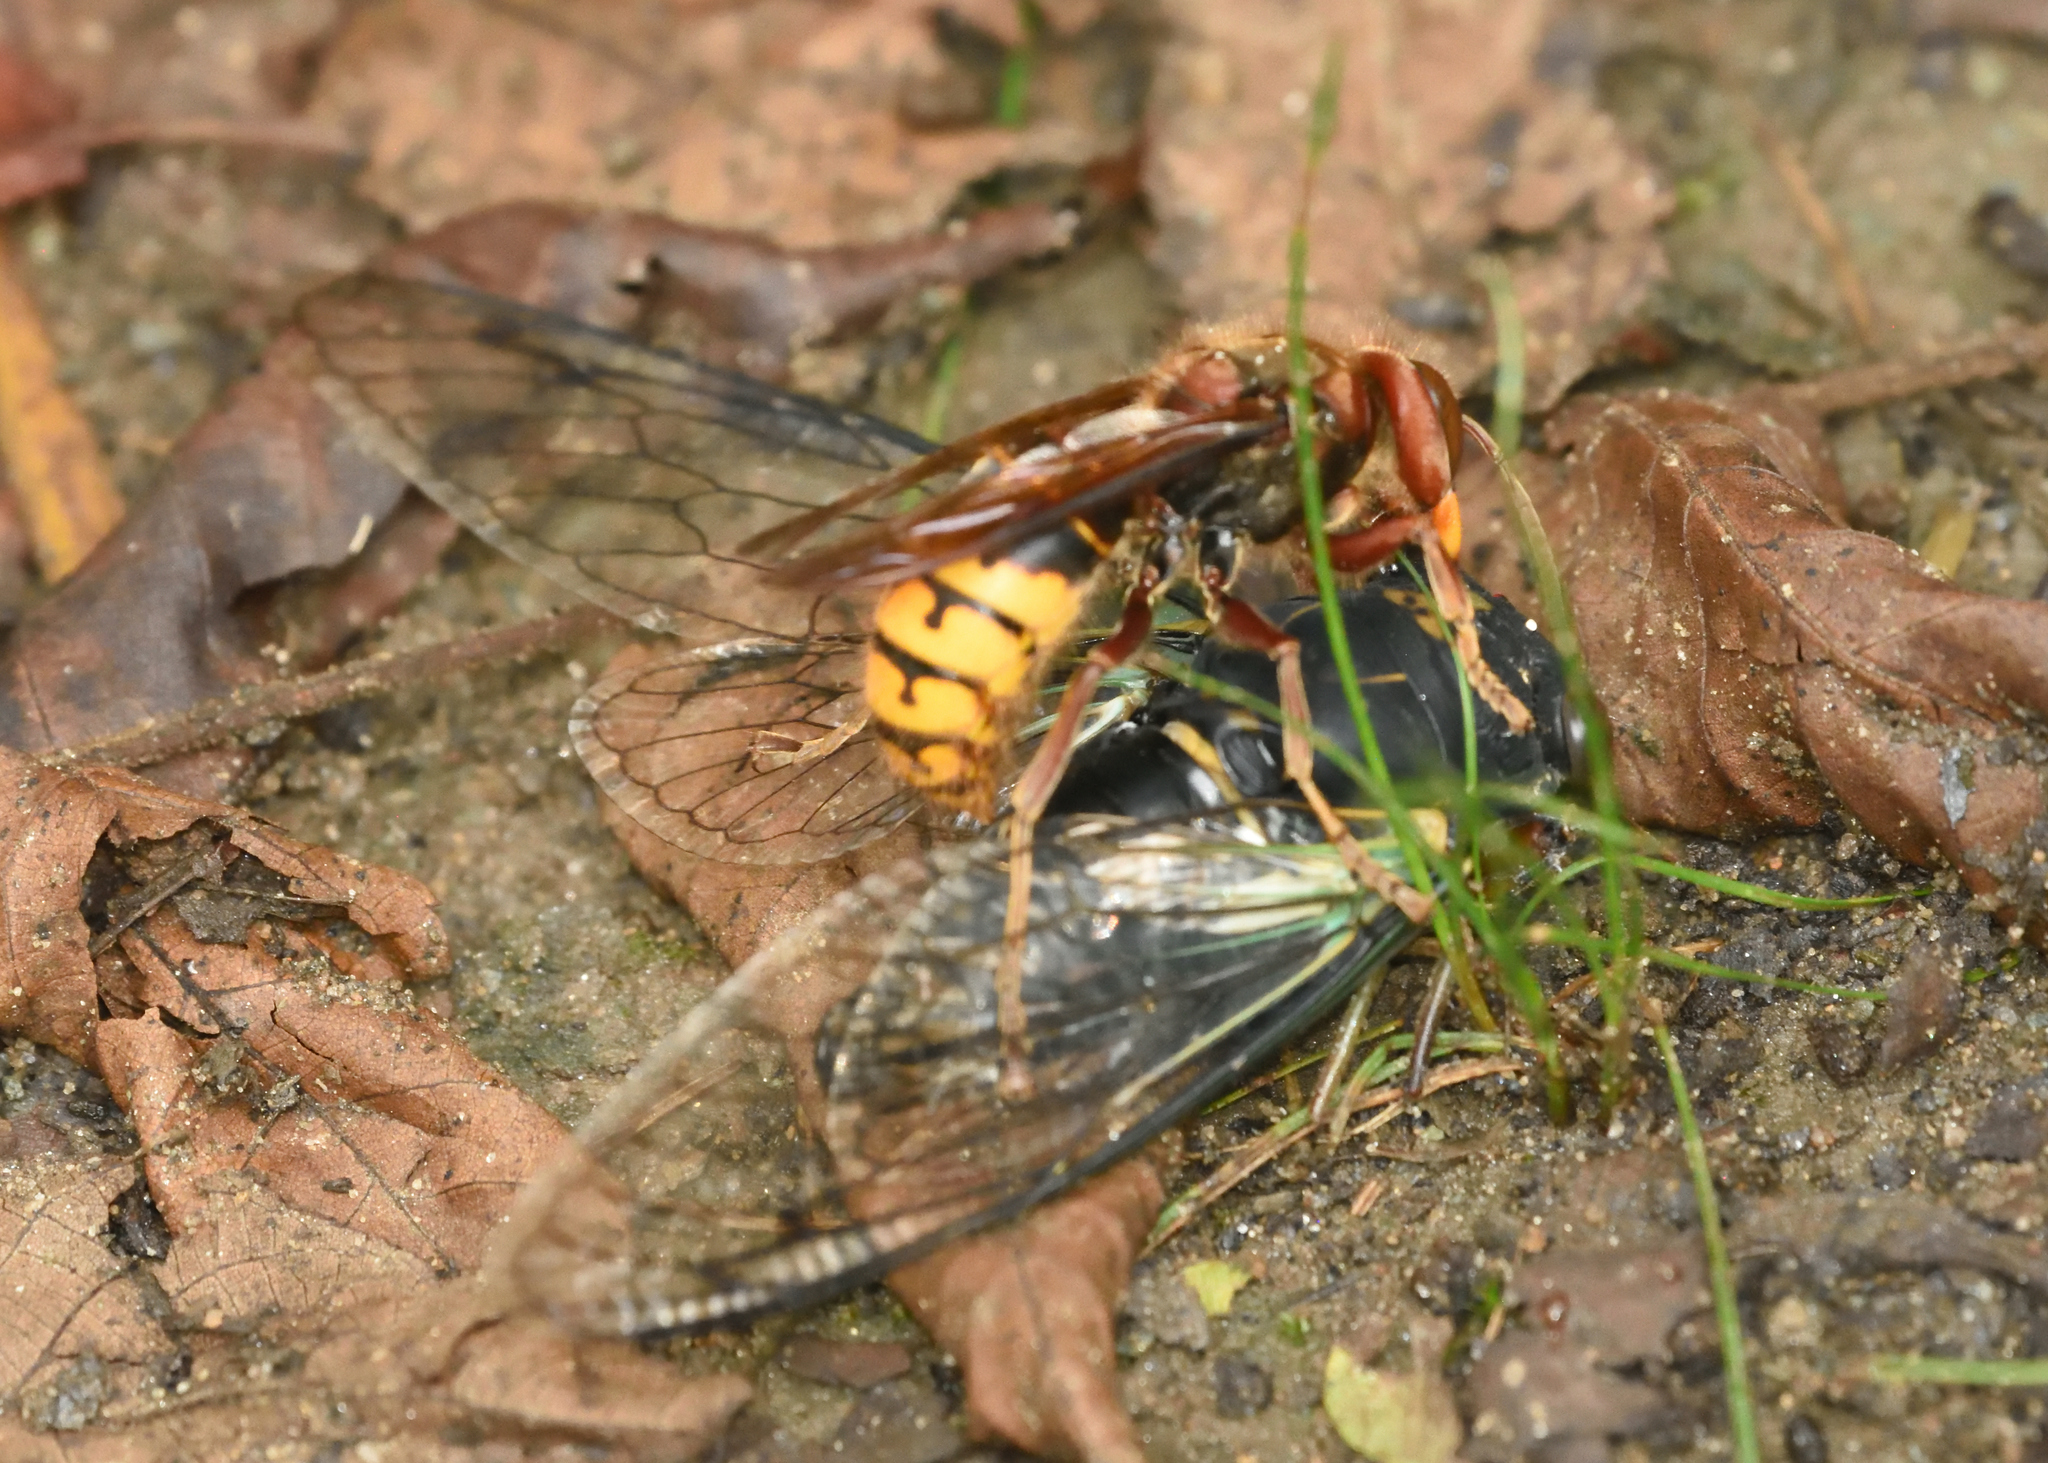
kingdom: Animalia
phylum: Arthropoda
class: Insecta
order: Hymenoptera
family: Vespidae
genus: Vespa
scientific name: Vespa crabro
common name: Hornet
